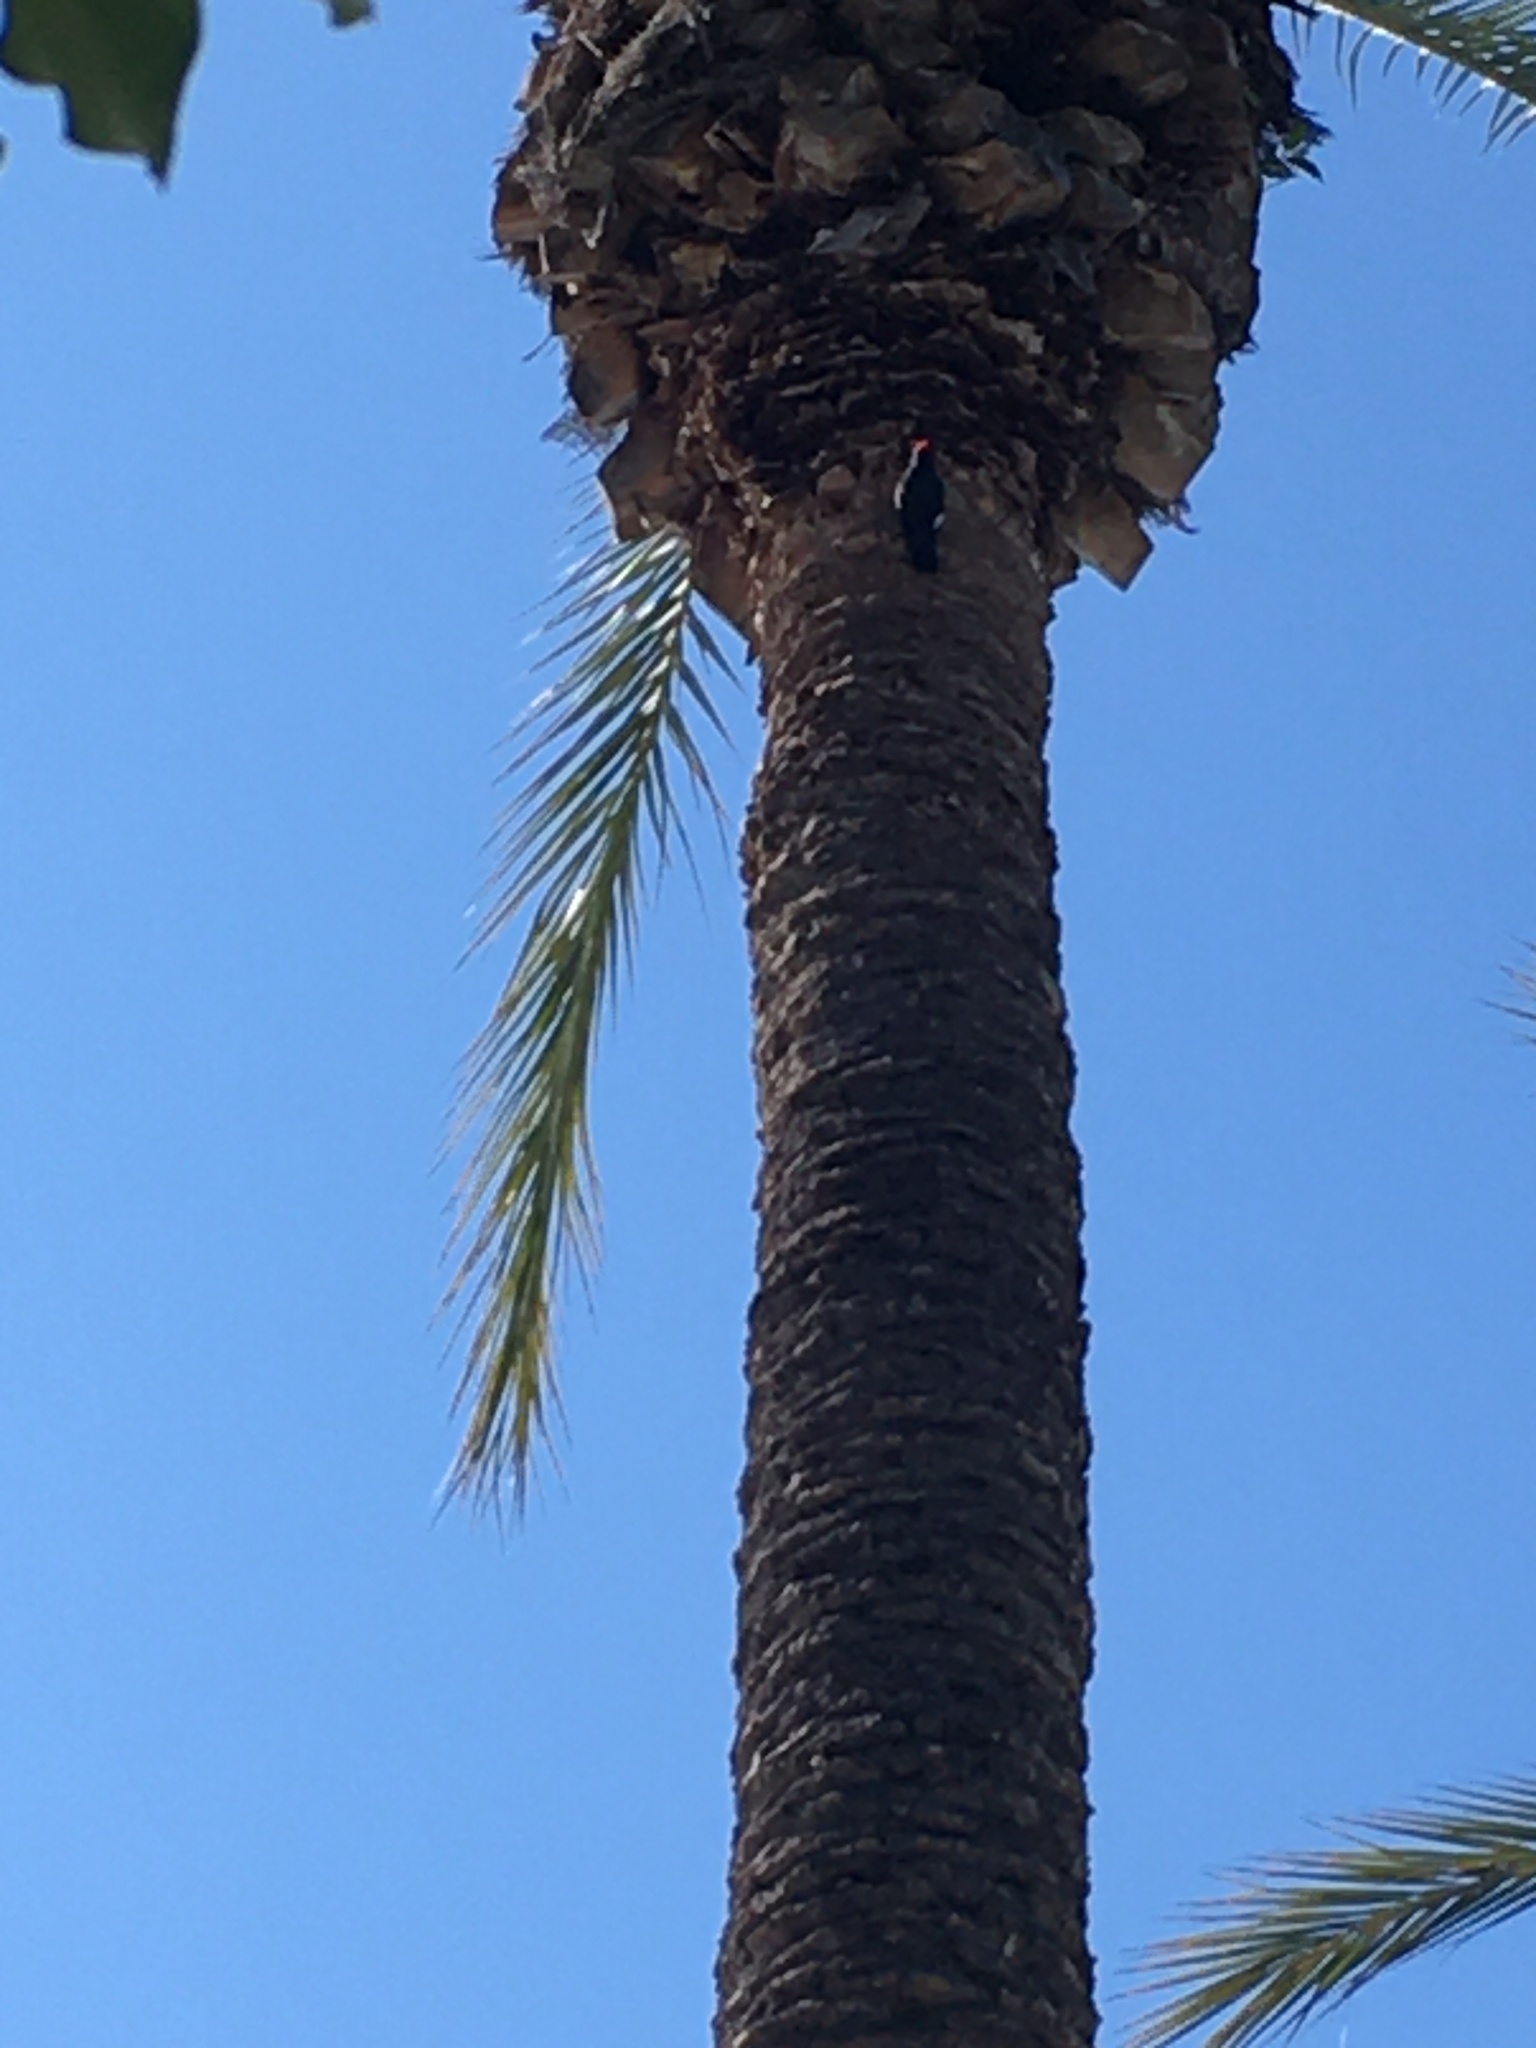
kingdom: Animalia
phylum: Chordata
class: Aves
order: Piciformes
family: Picidae
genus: Melanerpes
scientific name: Melanerpes formicivorus
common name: Acorn woodpecker
